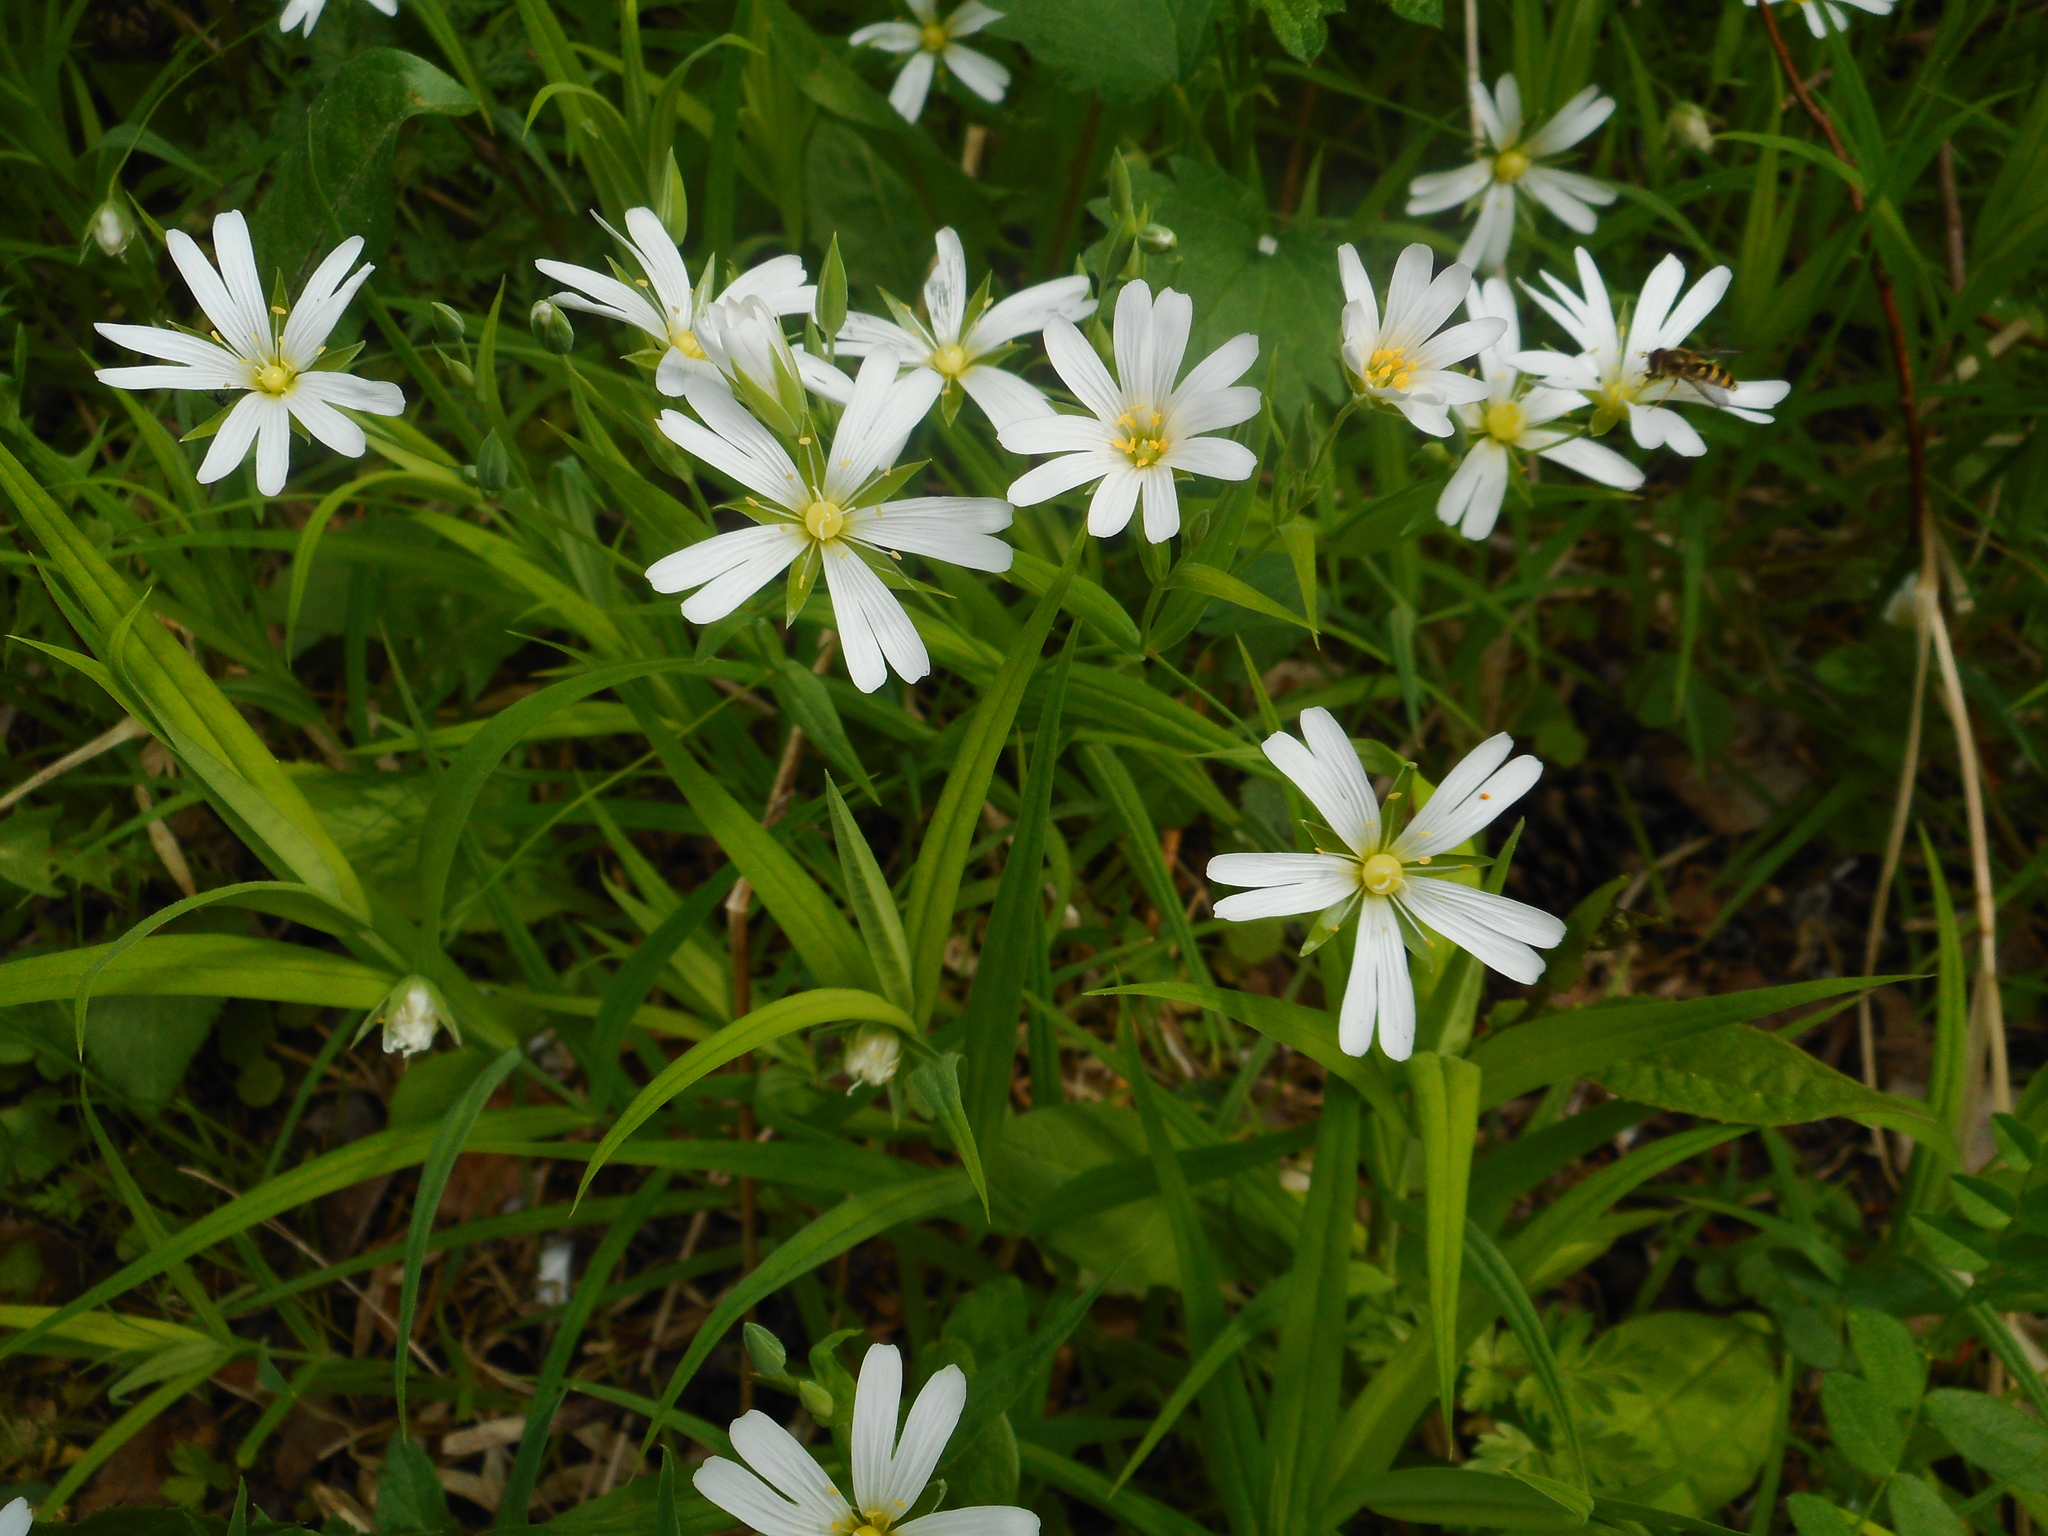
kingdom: Plantae
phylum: Tracheophyta
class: Magnoliopsida
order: Caryophyllales
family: Caryophyllaceae
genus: Rabelera
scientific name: Rabelera holostea
